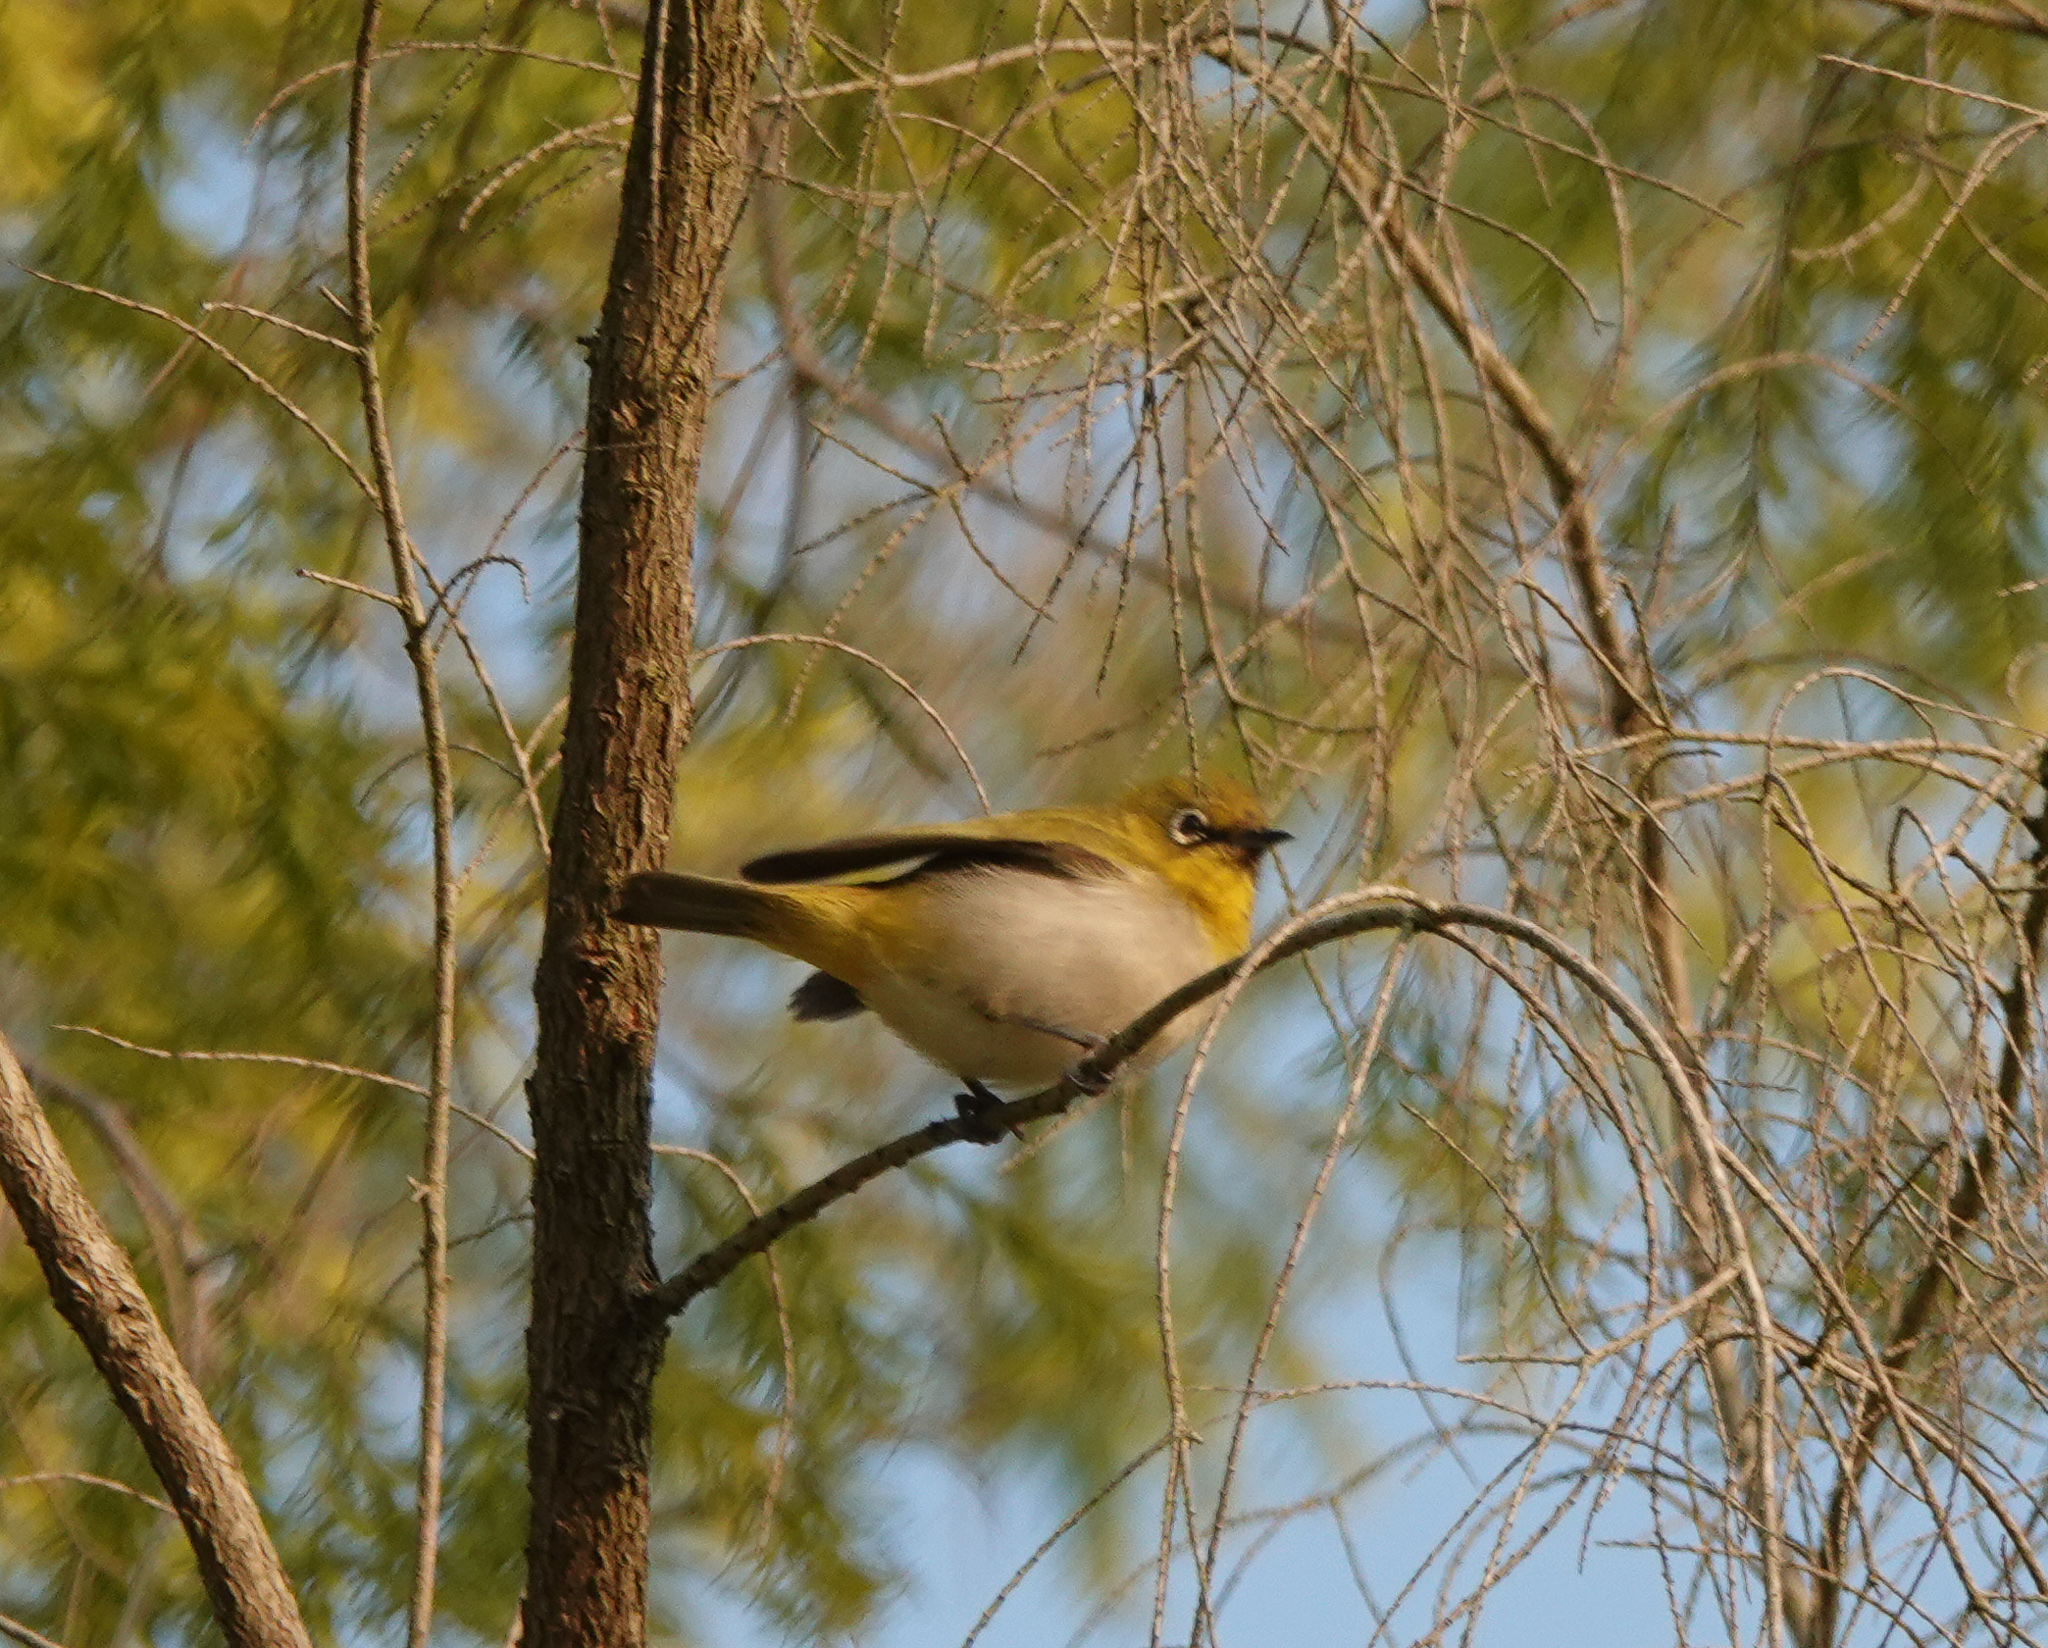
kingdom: Animalia
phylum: Chordata
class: Aves
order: Passeriformes
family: Zosteropidae
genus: Zosterops
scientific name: Zosterops palpebrosus
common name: Oriental white-eye
